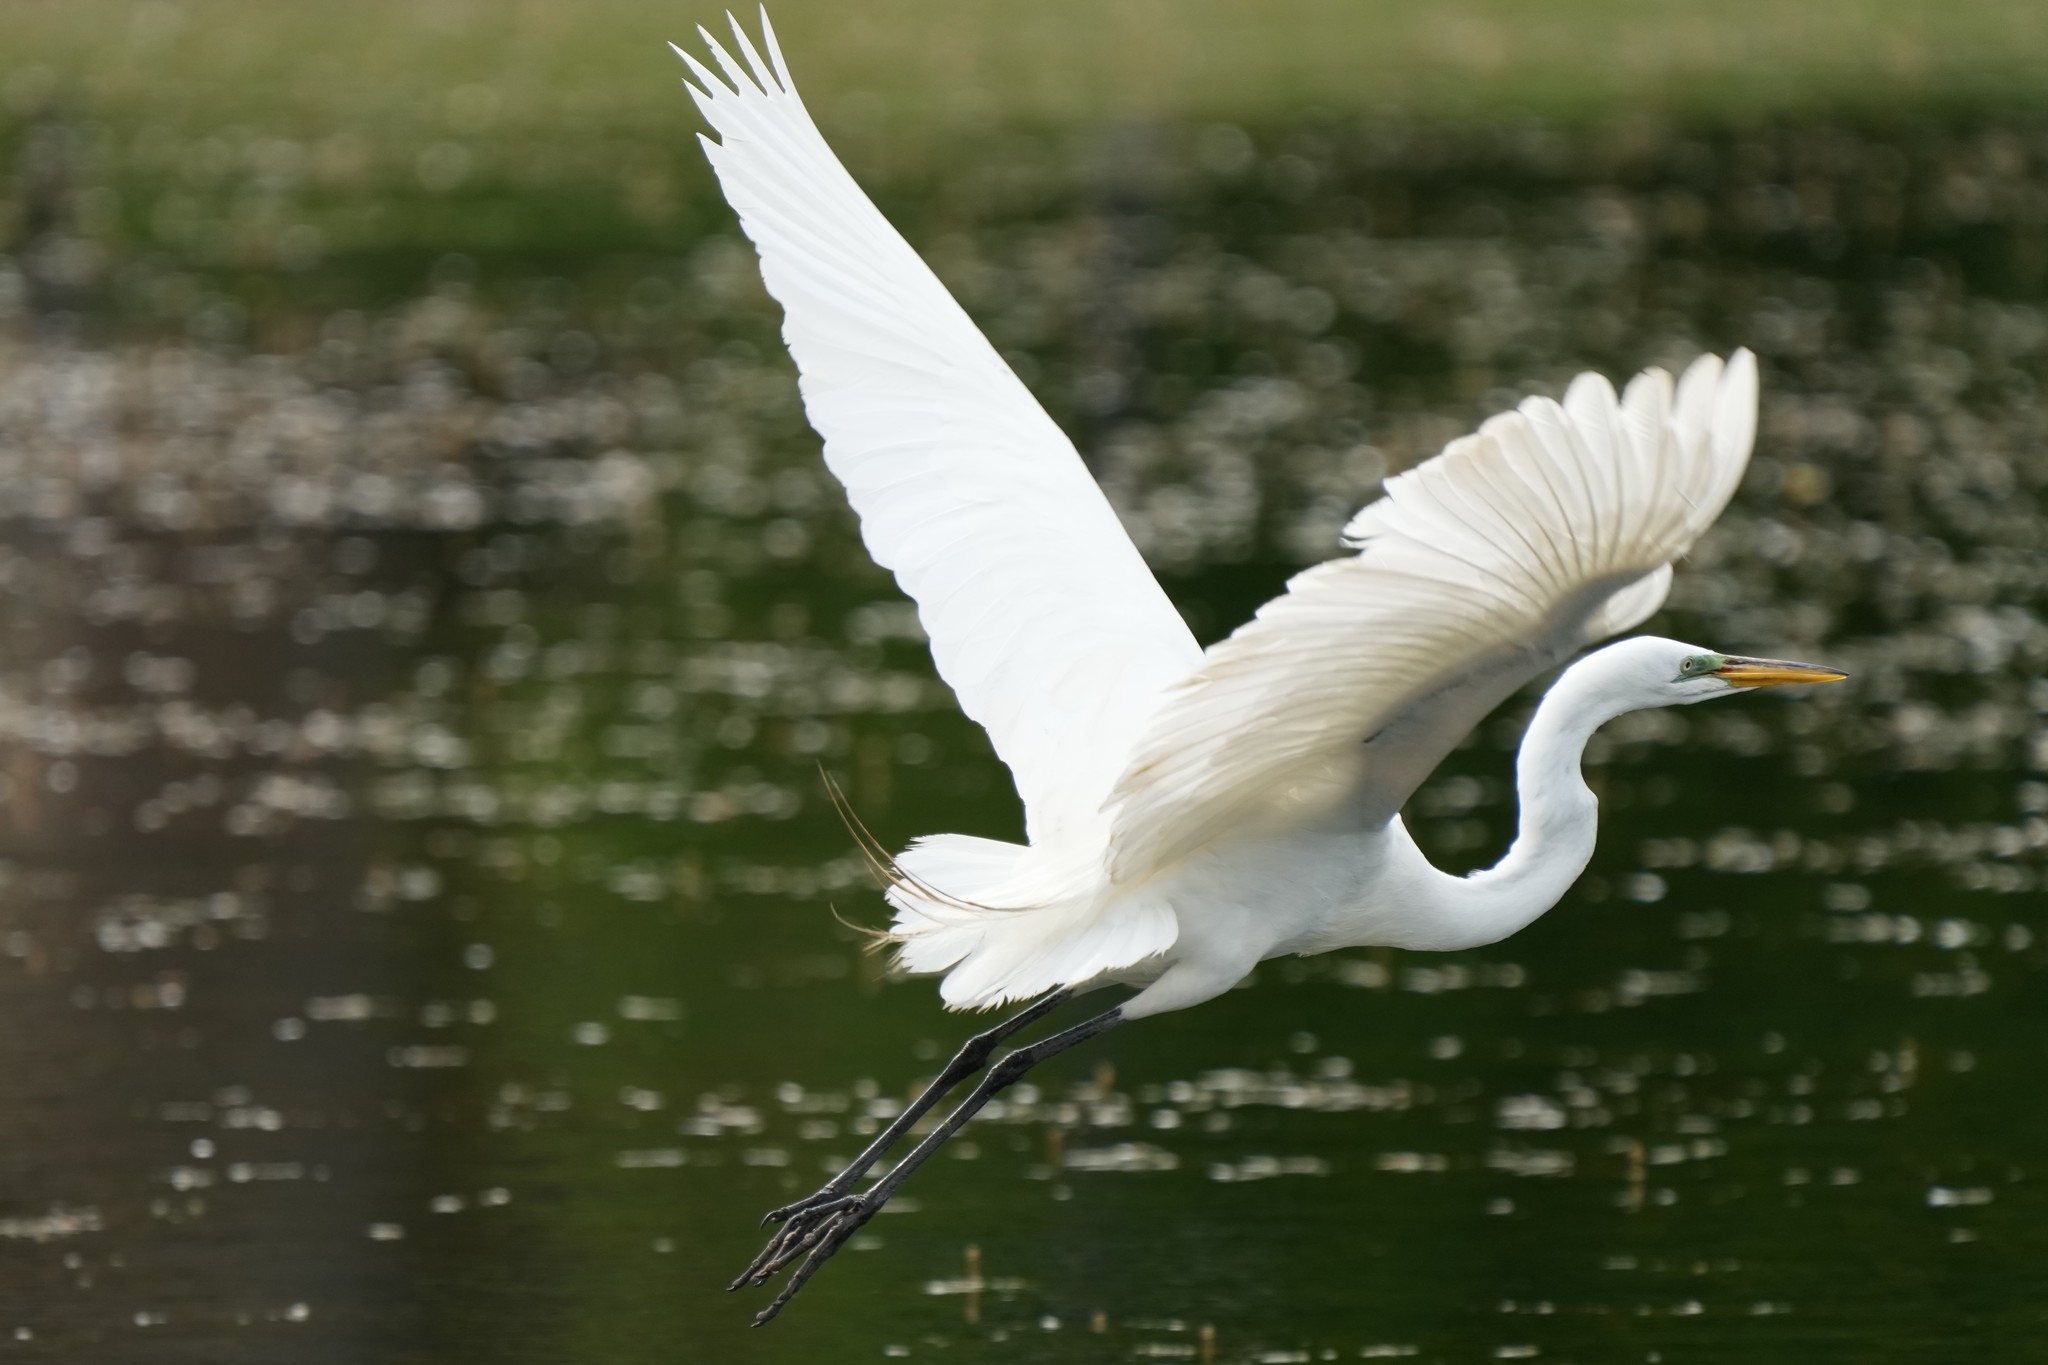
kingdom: Animalia
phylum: Chordata
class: Aves
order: Pelecaniformes
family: Ardeidae
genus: Ardea
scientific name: Ardea alba
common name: Great egret
